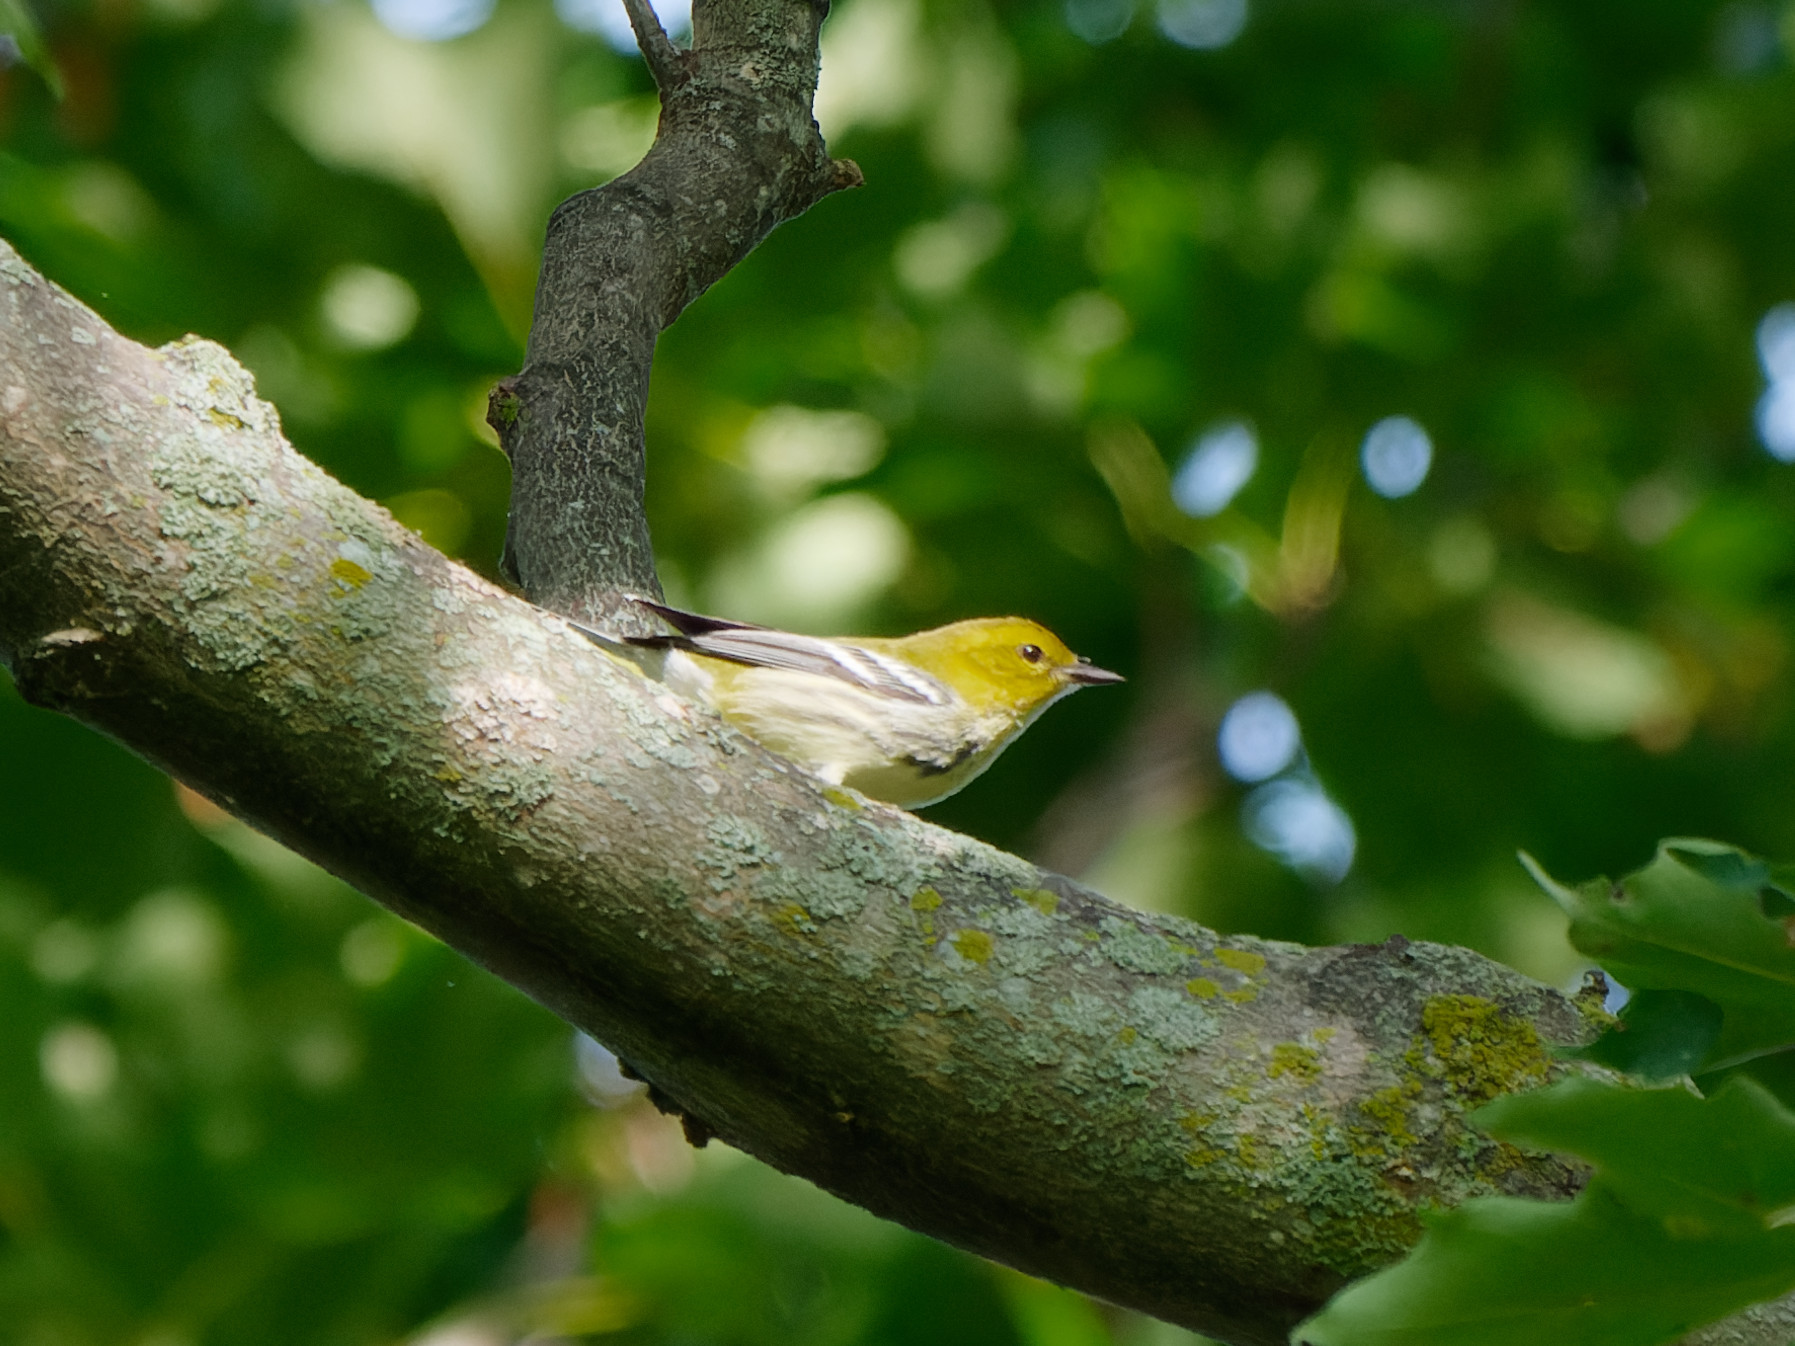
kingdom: Animalia
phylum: Chordata
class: Aves
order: Passeriformes
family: Parulidae
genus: Setophaga
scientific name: Setophaga virens
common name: Black-throated green warbler
